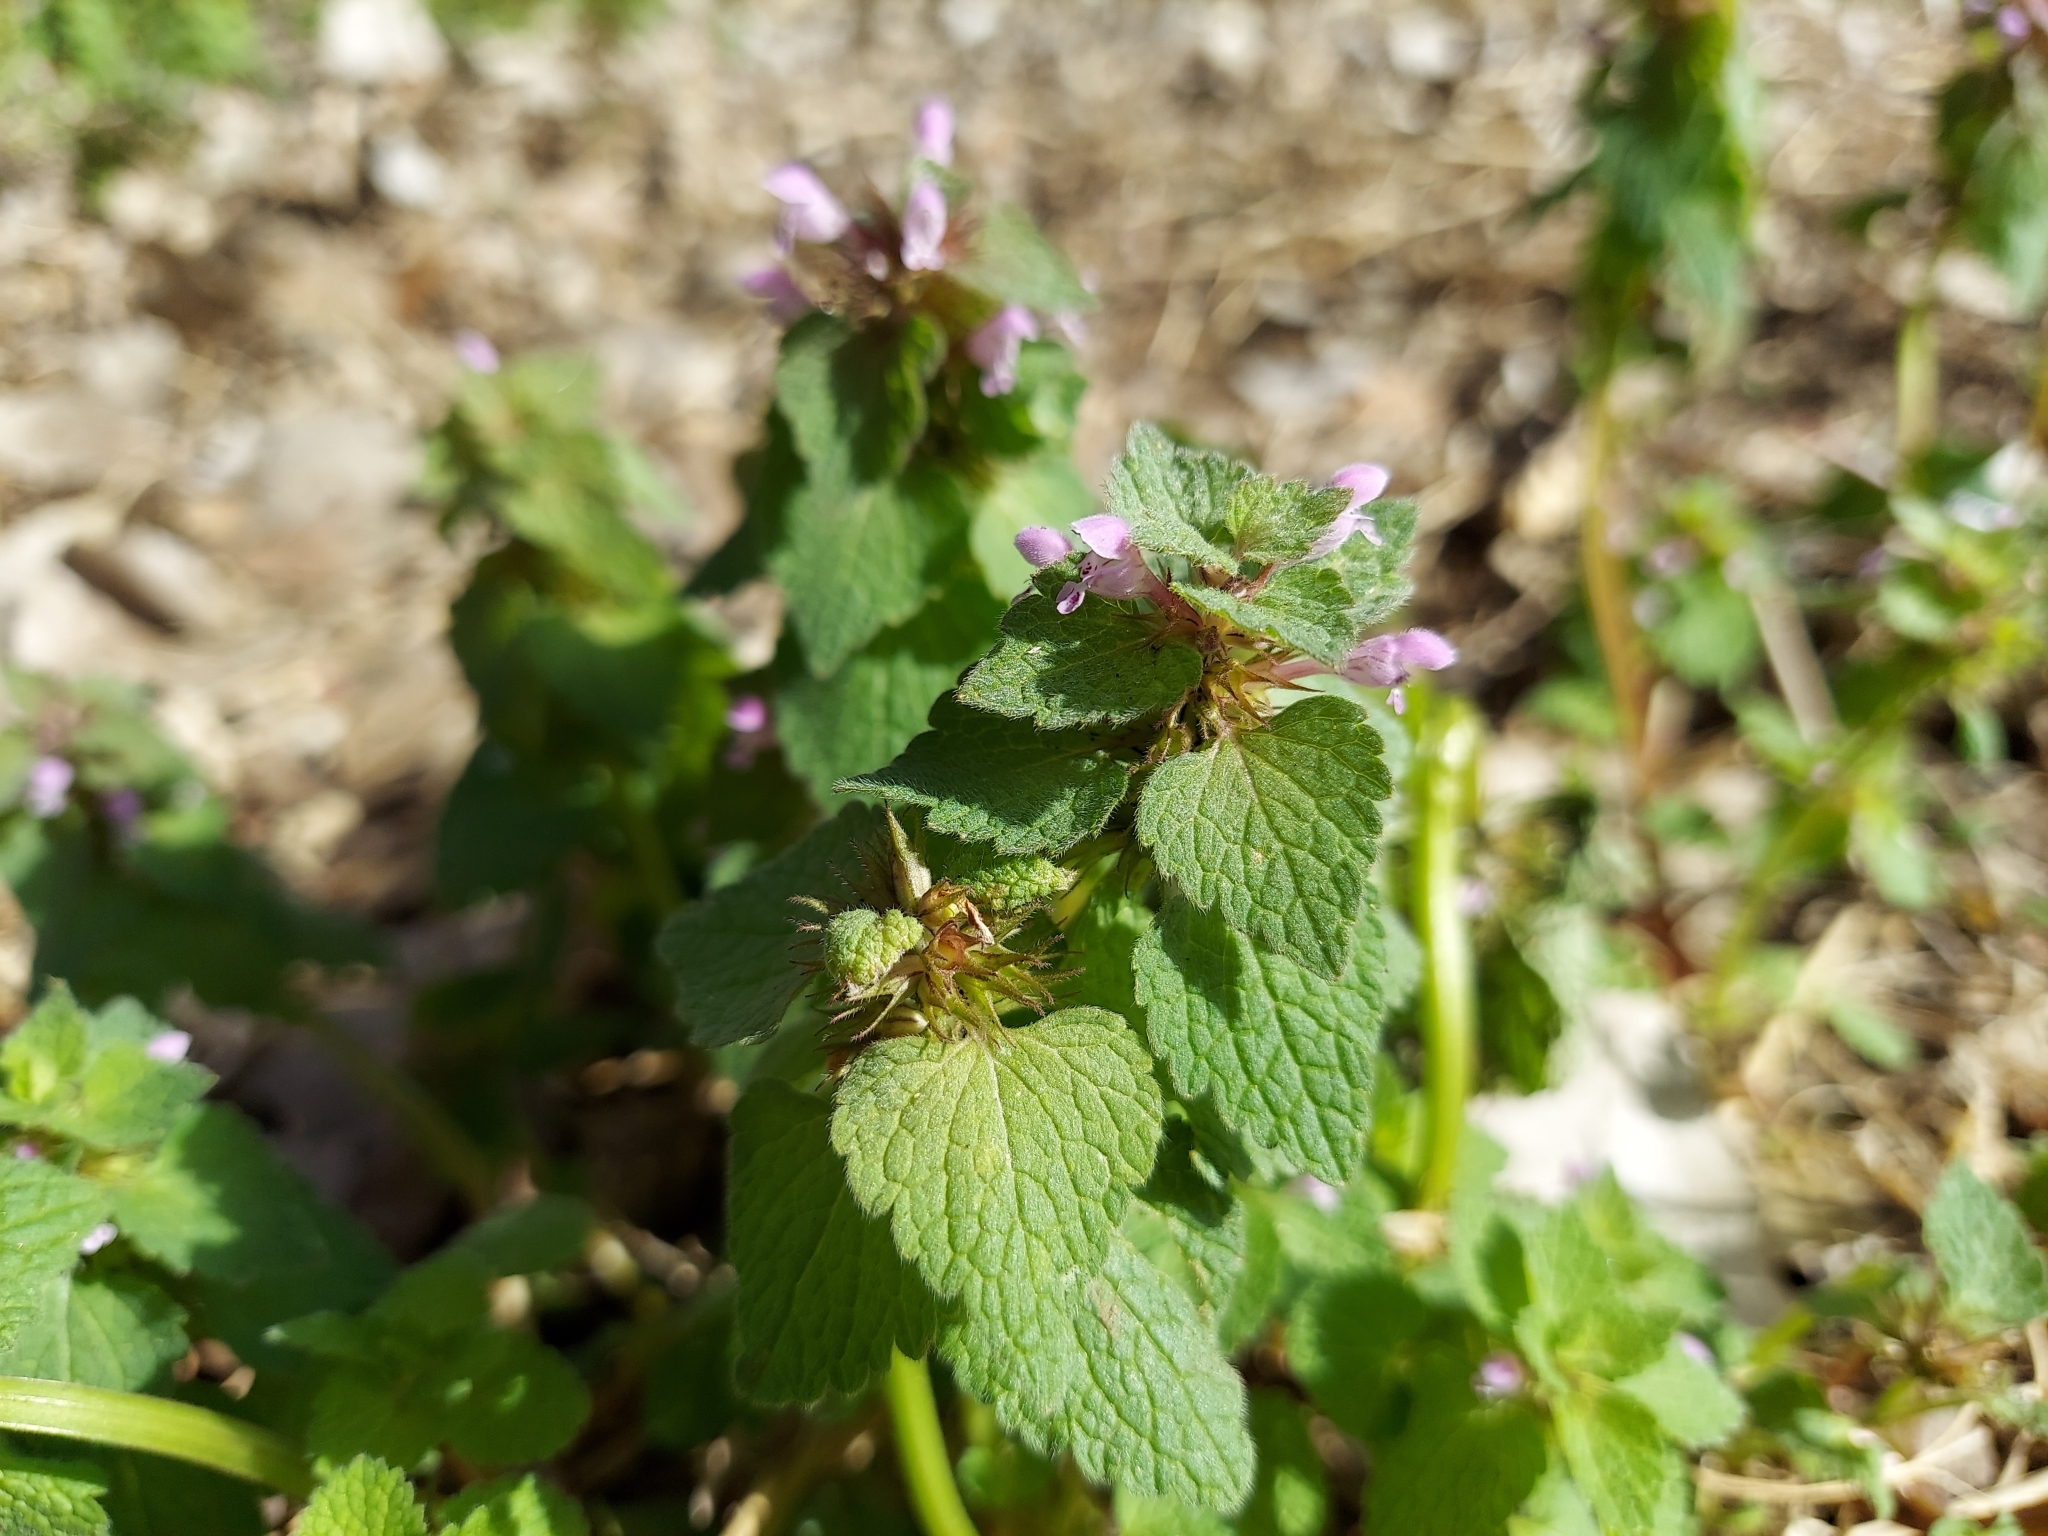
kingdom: Plantae
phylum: Tracheophyta
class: Magnoliopsida
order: Lamiales
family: Lamiaceae
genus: Lamium
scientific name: Lamium purpureum
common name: Red dead-nettle
